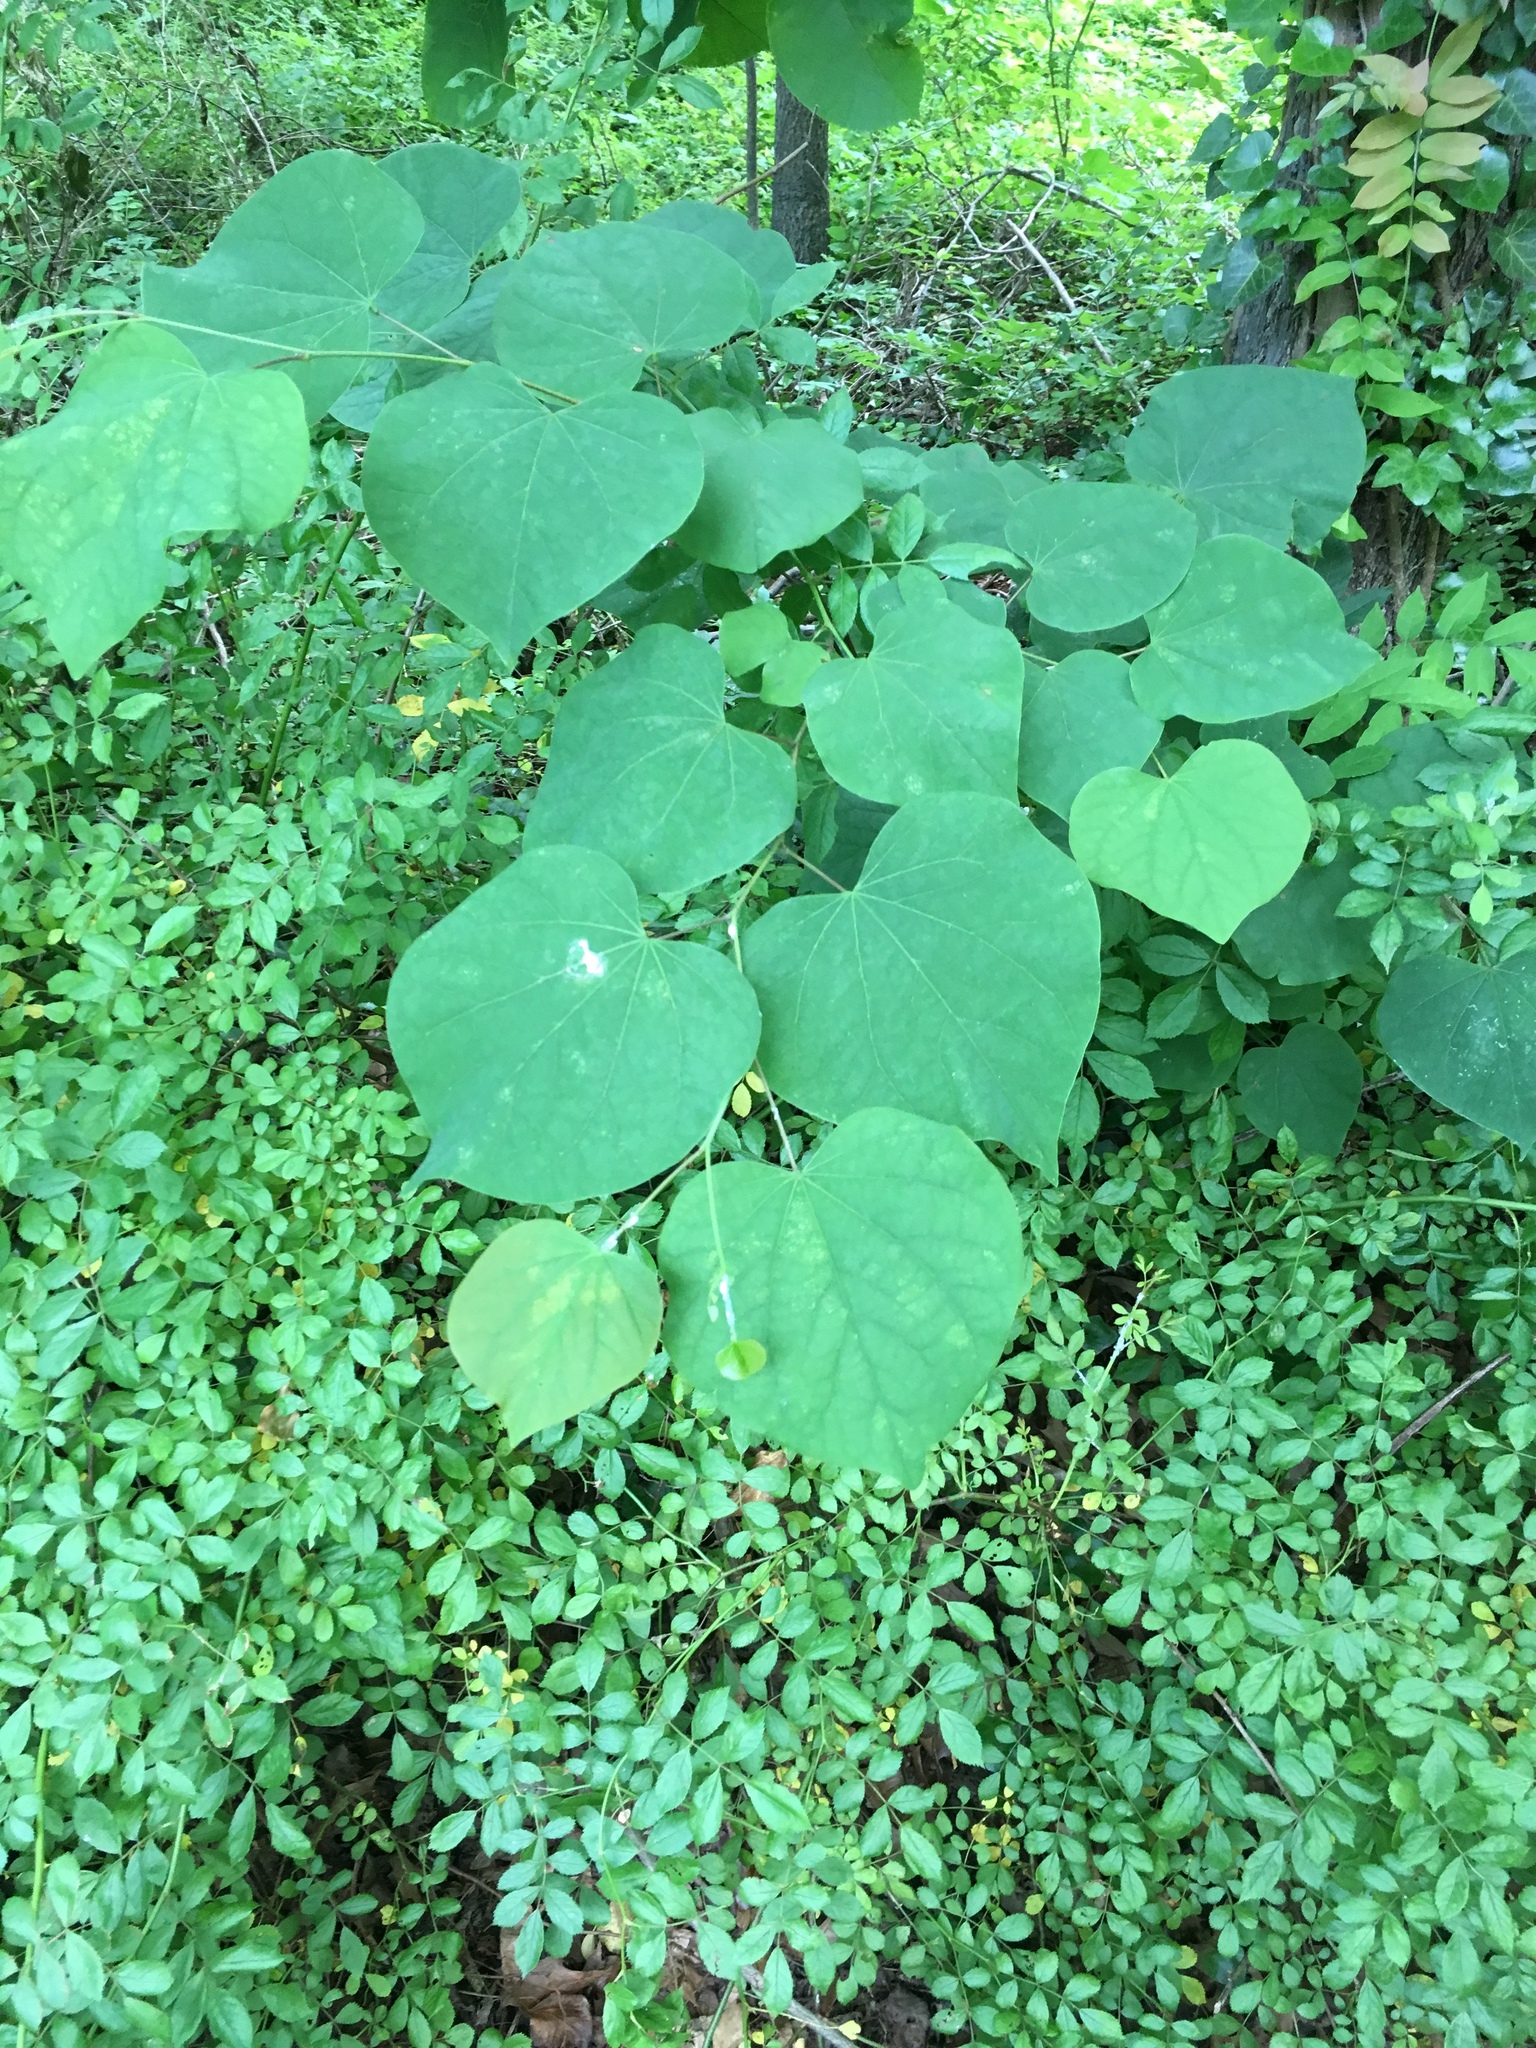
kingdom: Plantae
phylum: Tracheophyta
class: Magnoliopsida
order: Fabales
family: Fabaceae
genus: Cercis
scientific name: Cercis canadensis
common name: Eastern redbud
